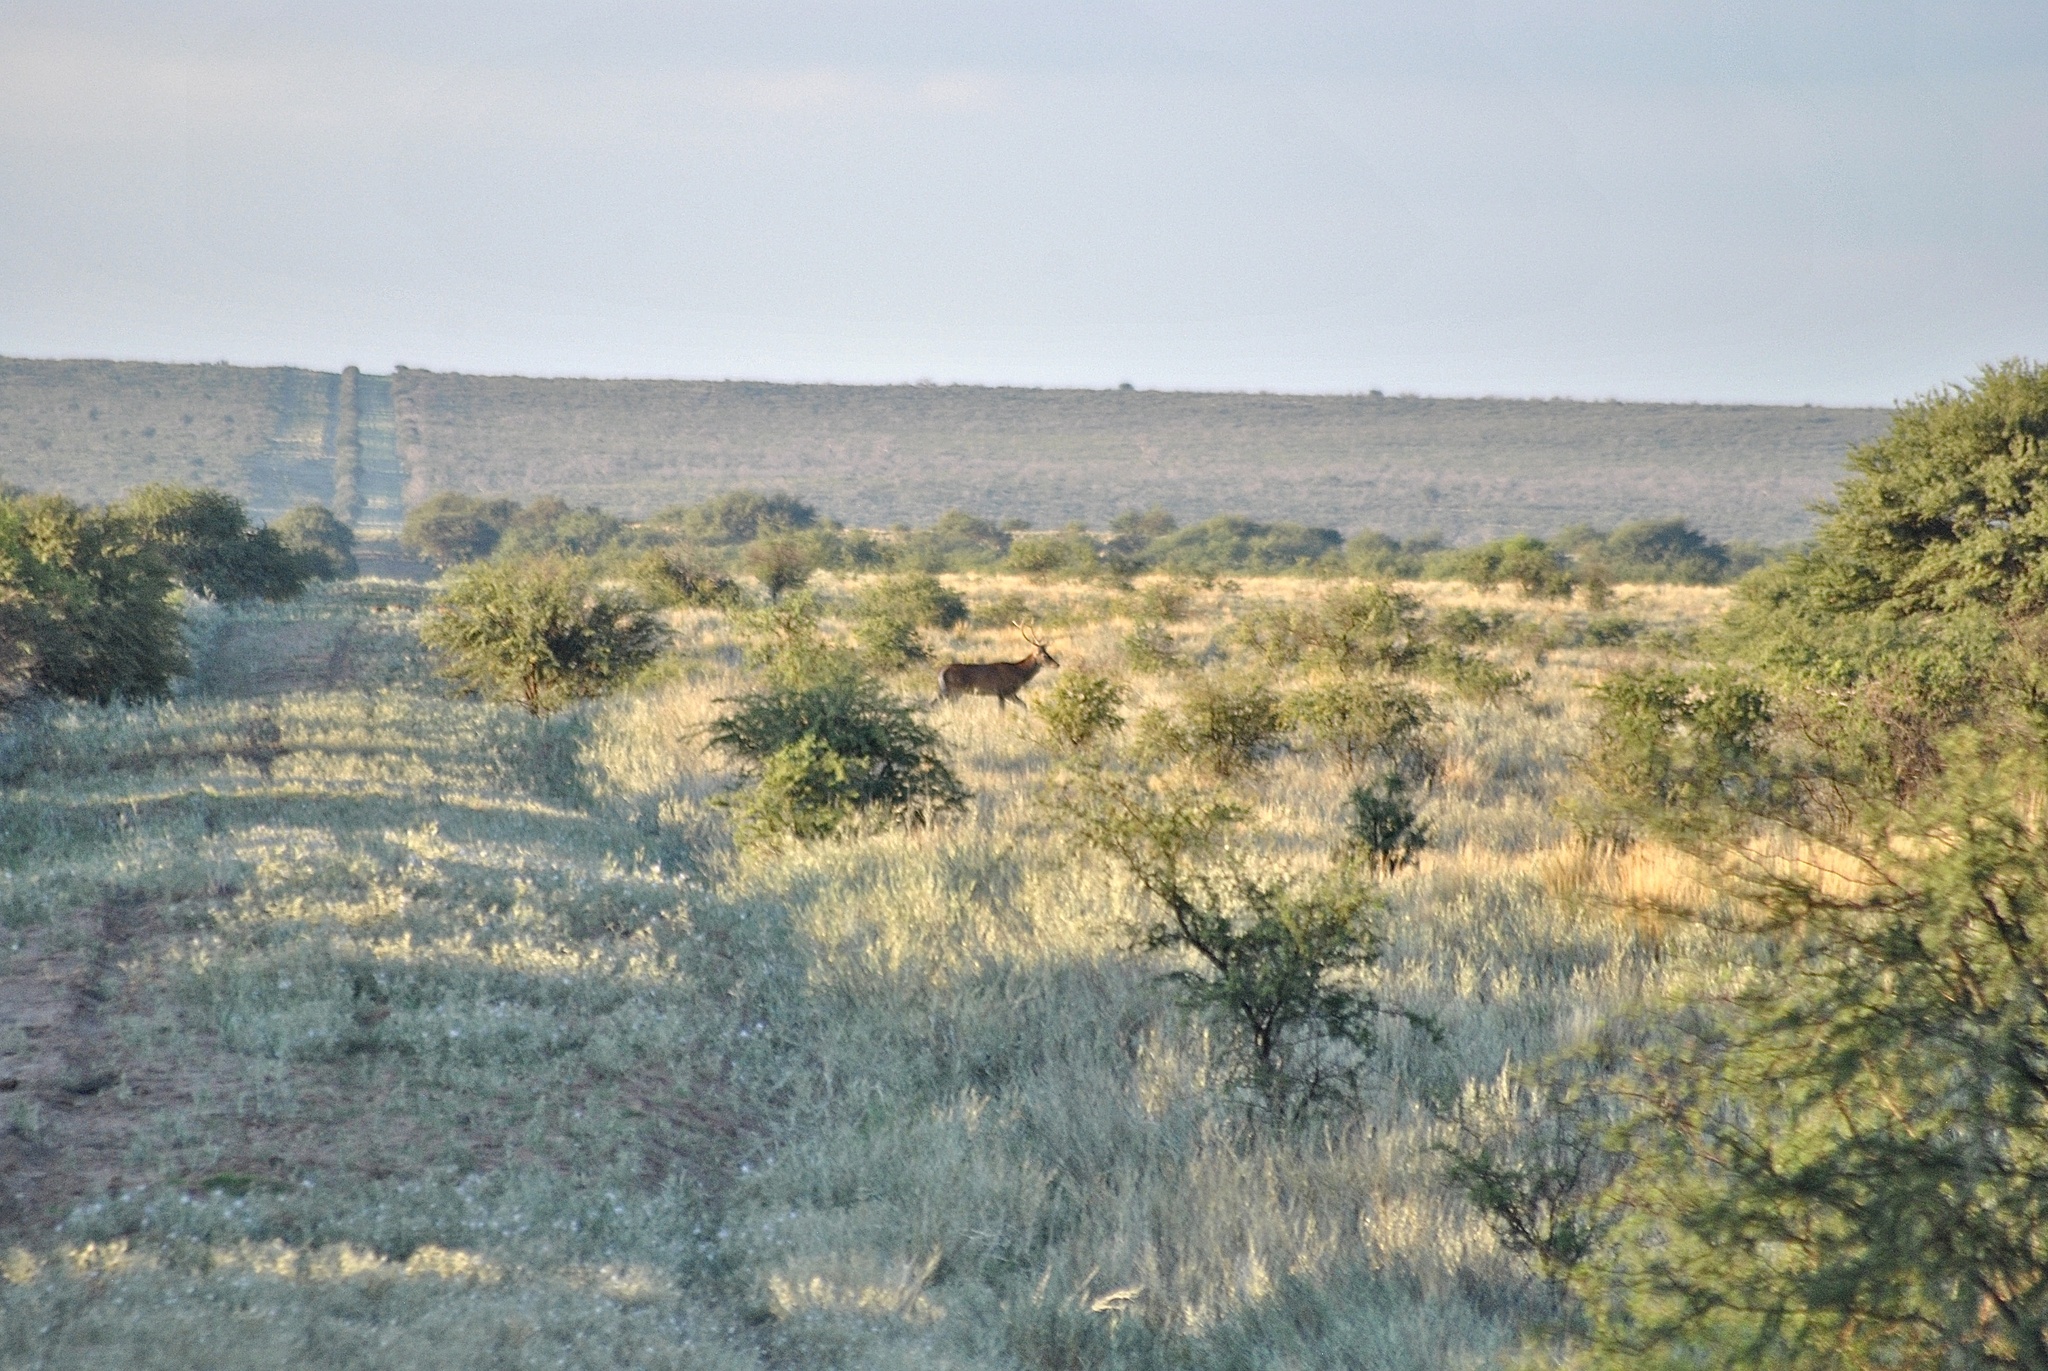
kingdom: Animalia
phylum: Chordata
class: Mammalia
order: Artiodactyla
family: Cervidae
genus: Cervus
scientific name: Cervus elaphus
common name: Red deer
